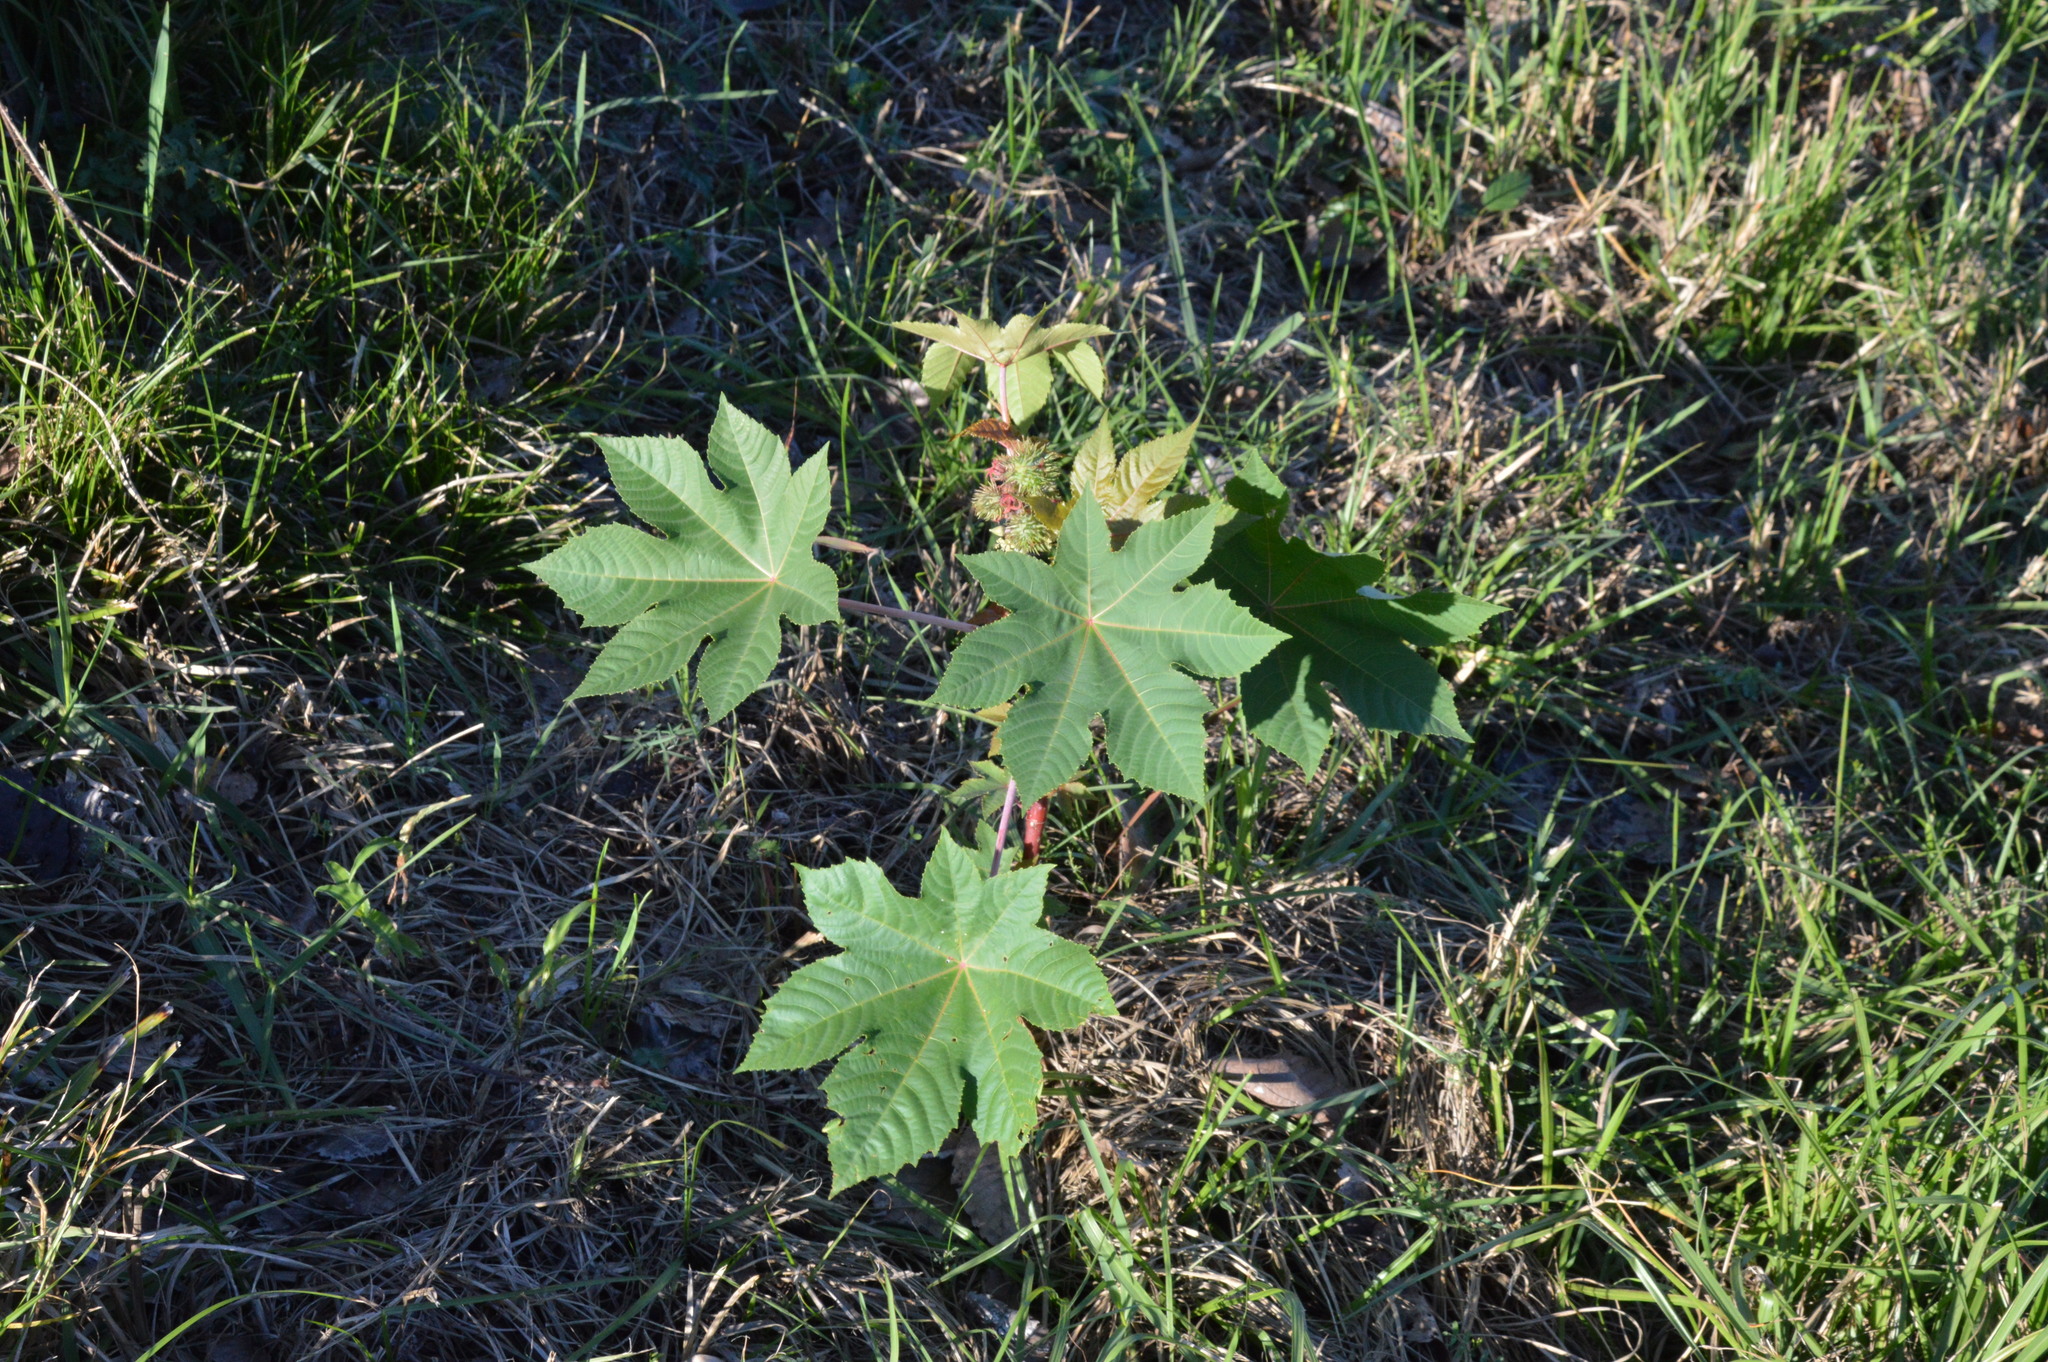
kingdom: Plantae
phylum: Tracheophyta
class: Magnoliopsida
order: Malpighiales
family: Euphorbiaceae
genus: Ricinus
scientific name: Ricinus communis
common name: Castor-oil-plant
